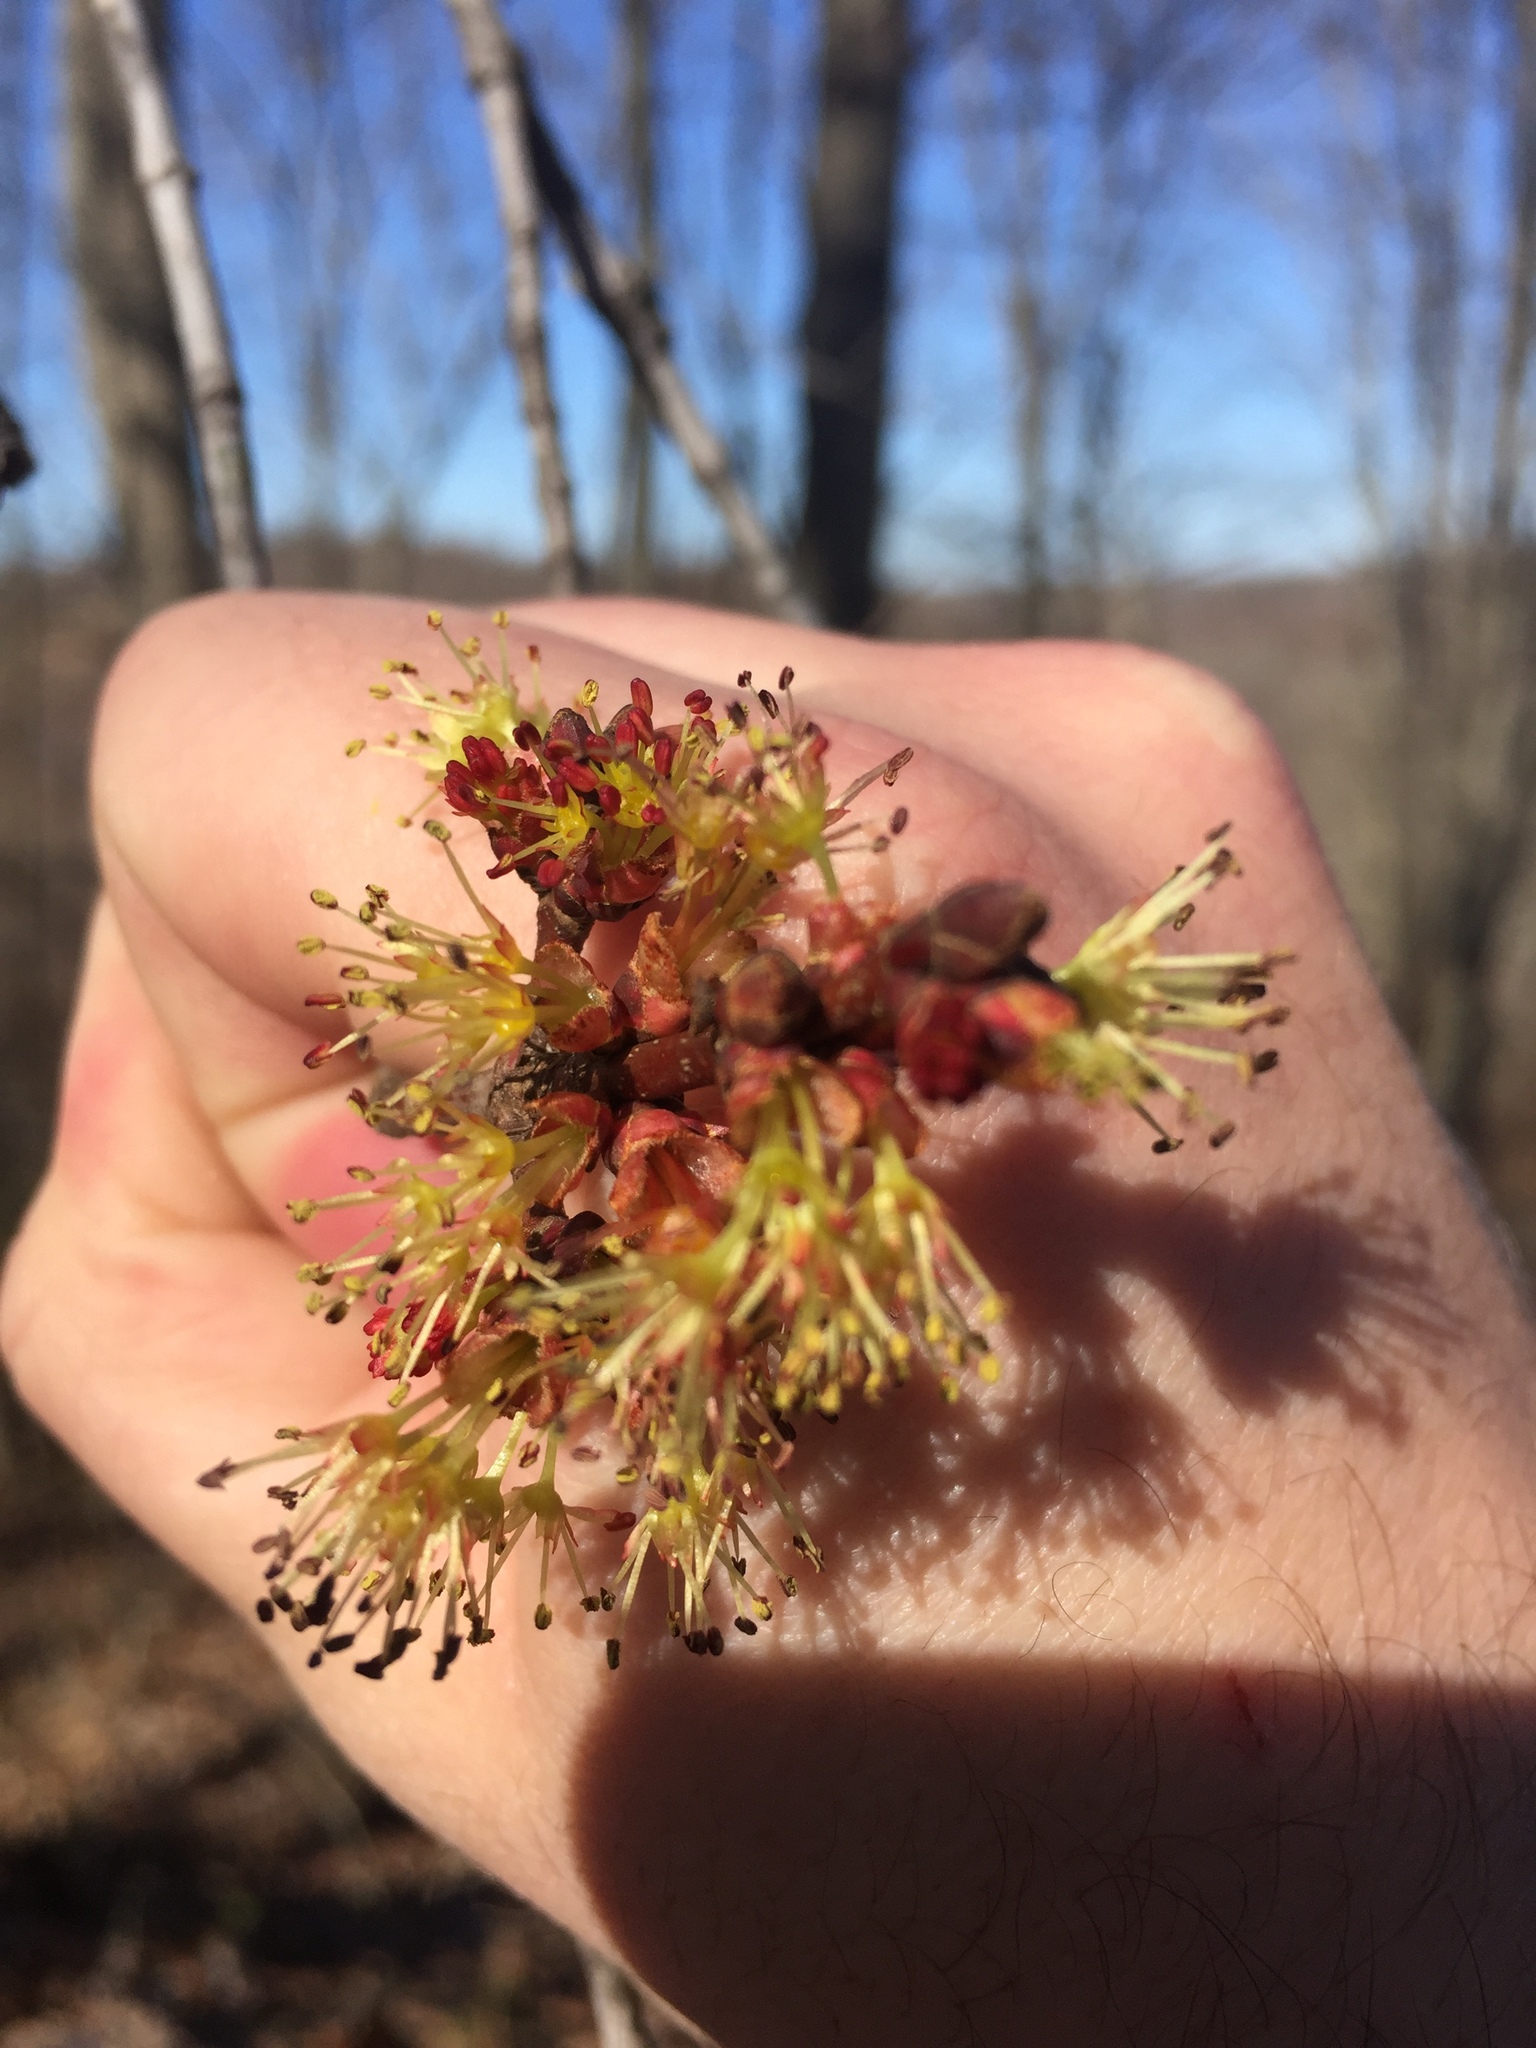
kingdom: Plantae
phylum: Tracheophyta
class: Magnoliopsida
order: Sapindales
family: Sapindaceae
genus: Acer
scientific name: Acer rubrum
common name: Red maple
